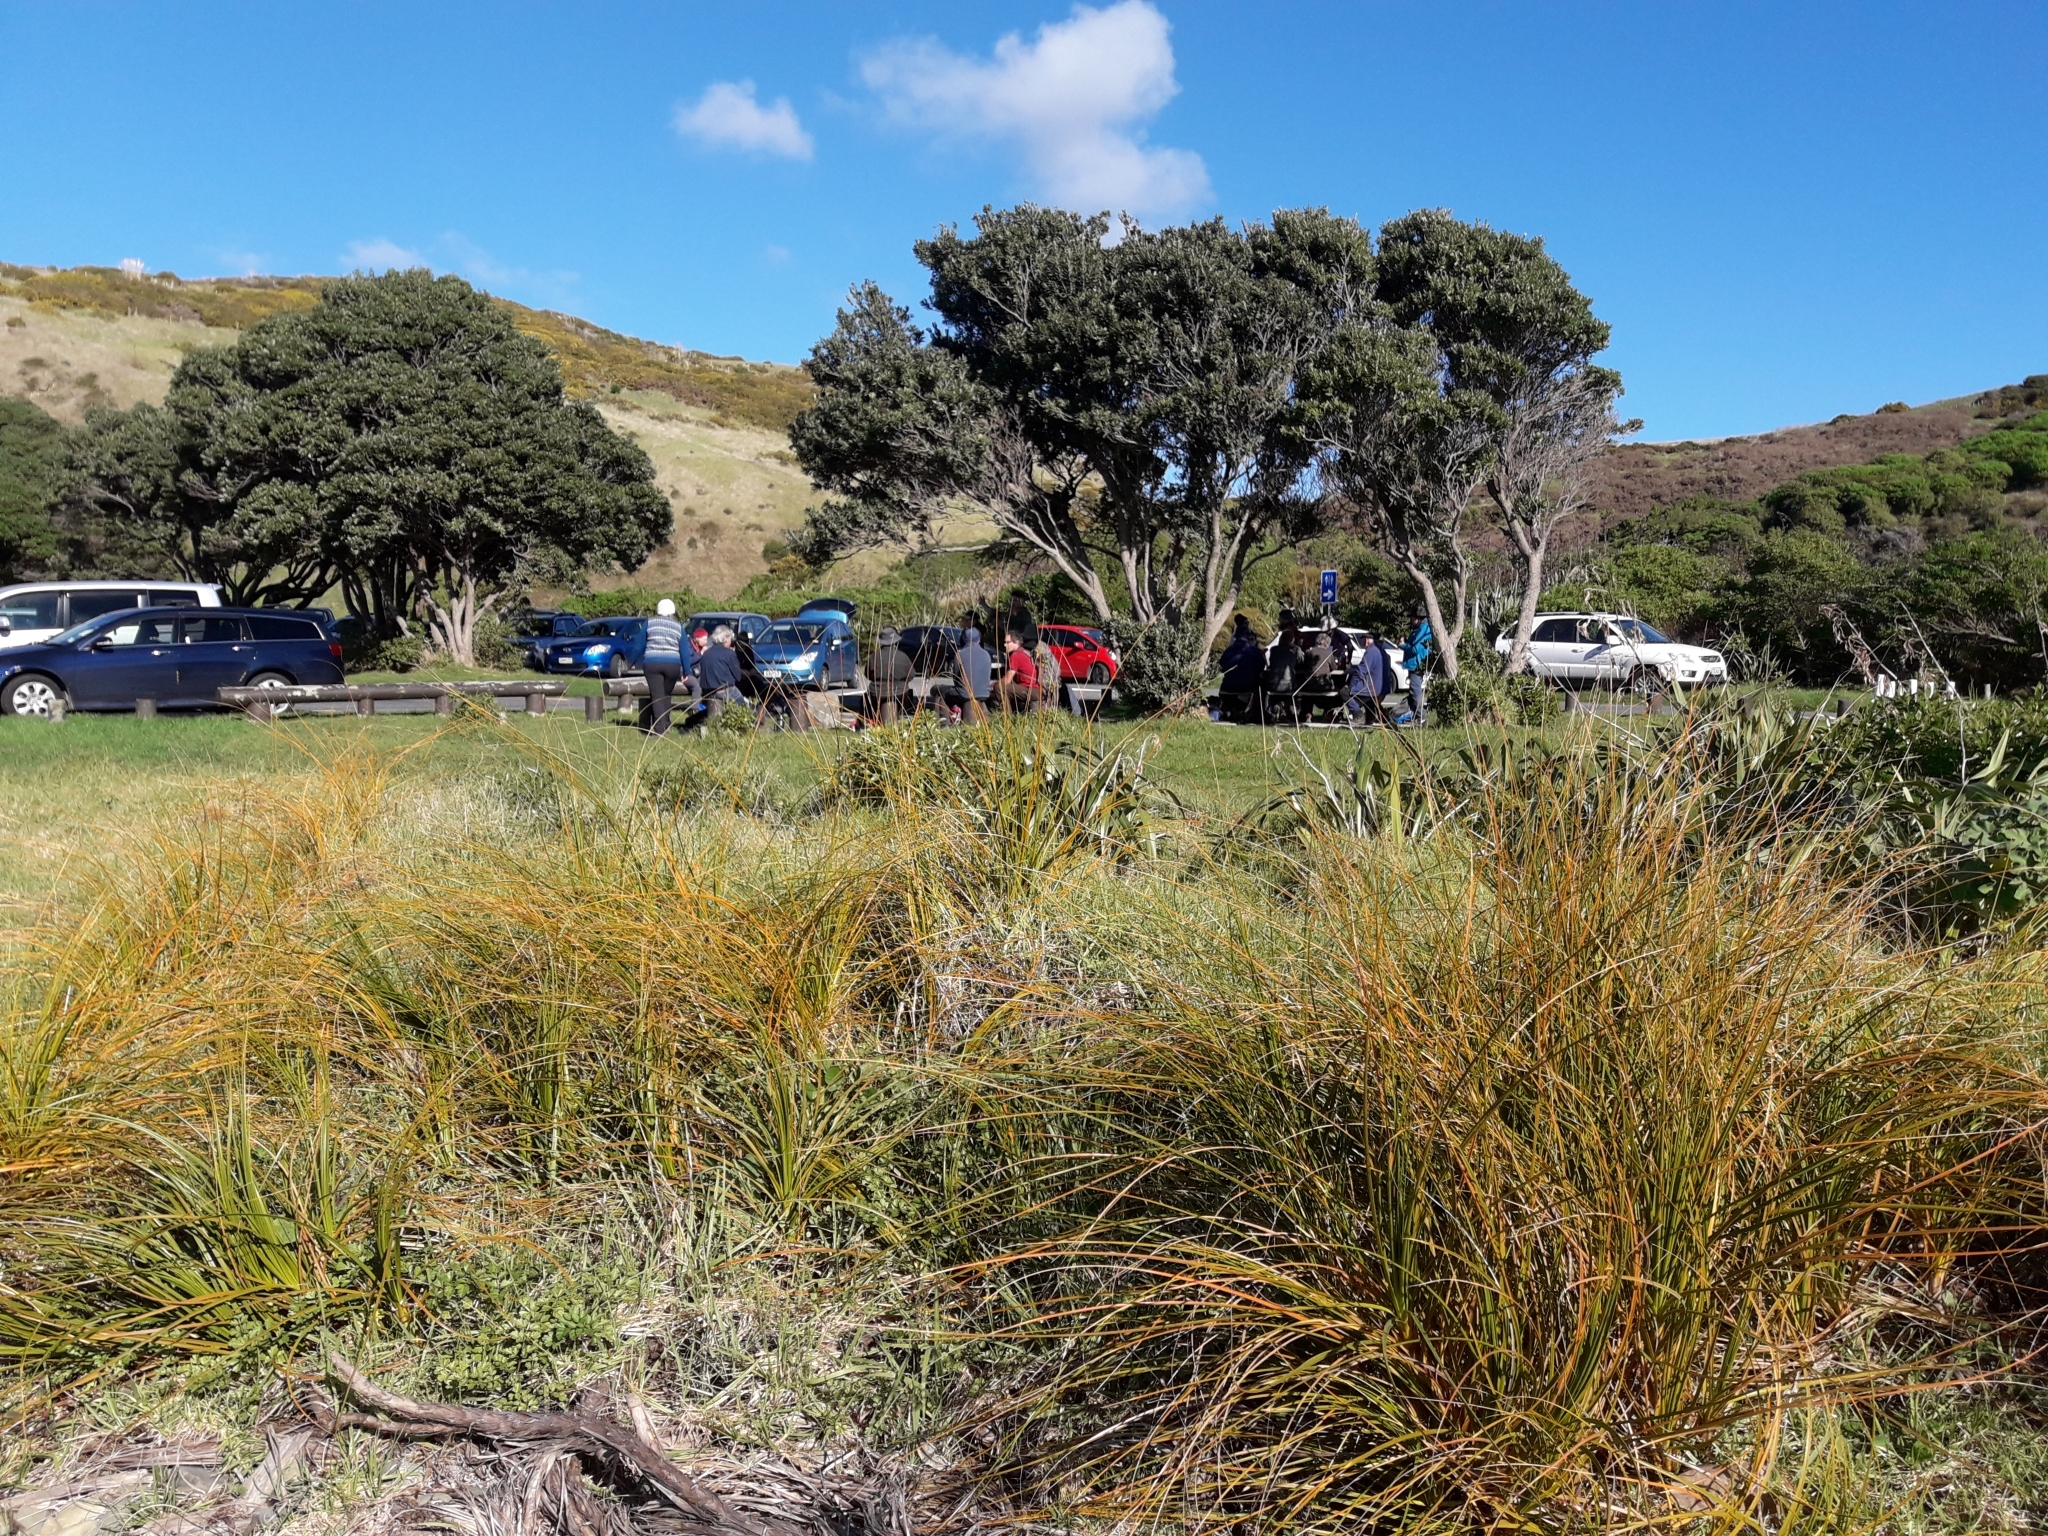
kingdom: Plantae
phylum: Tracheophyta
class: Liliopsida
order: Poales
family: Cyperaceae
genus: Ficinia
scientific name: Ficinia spiralis
